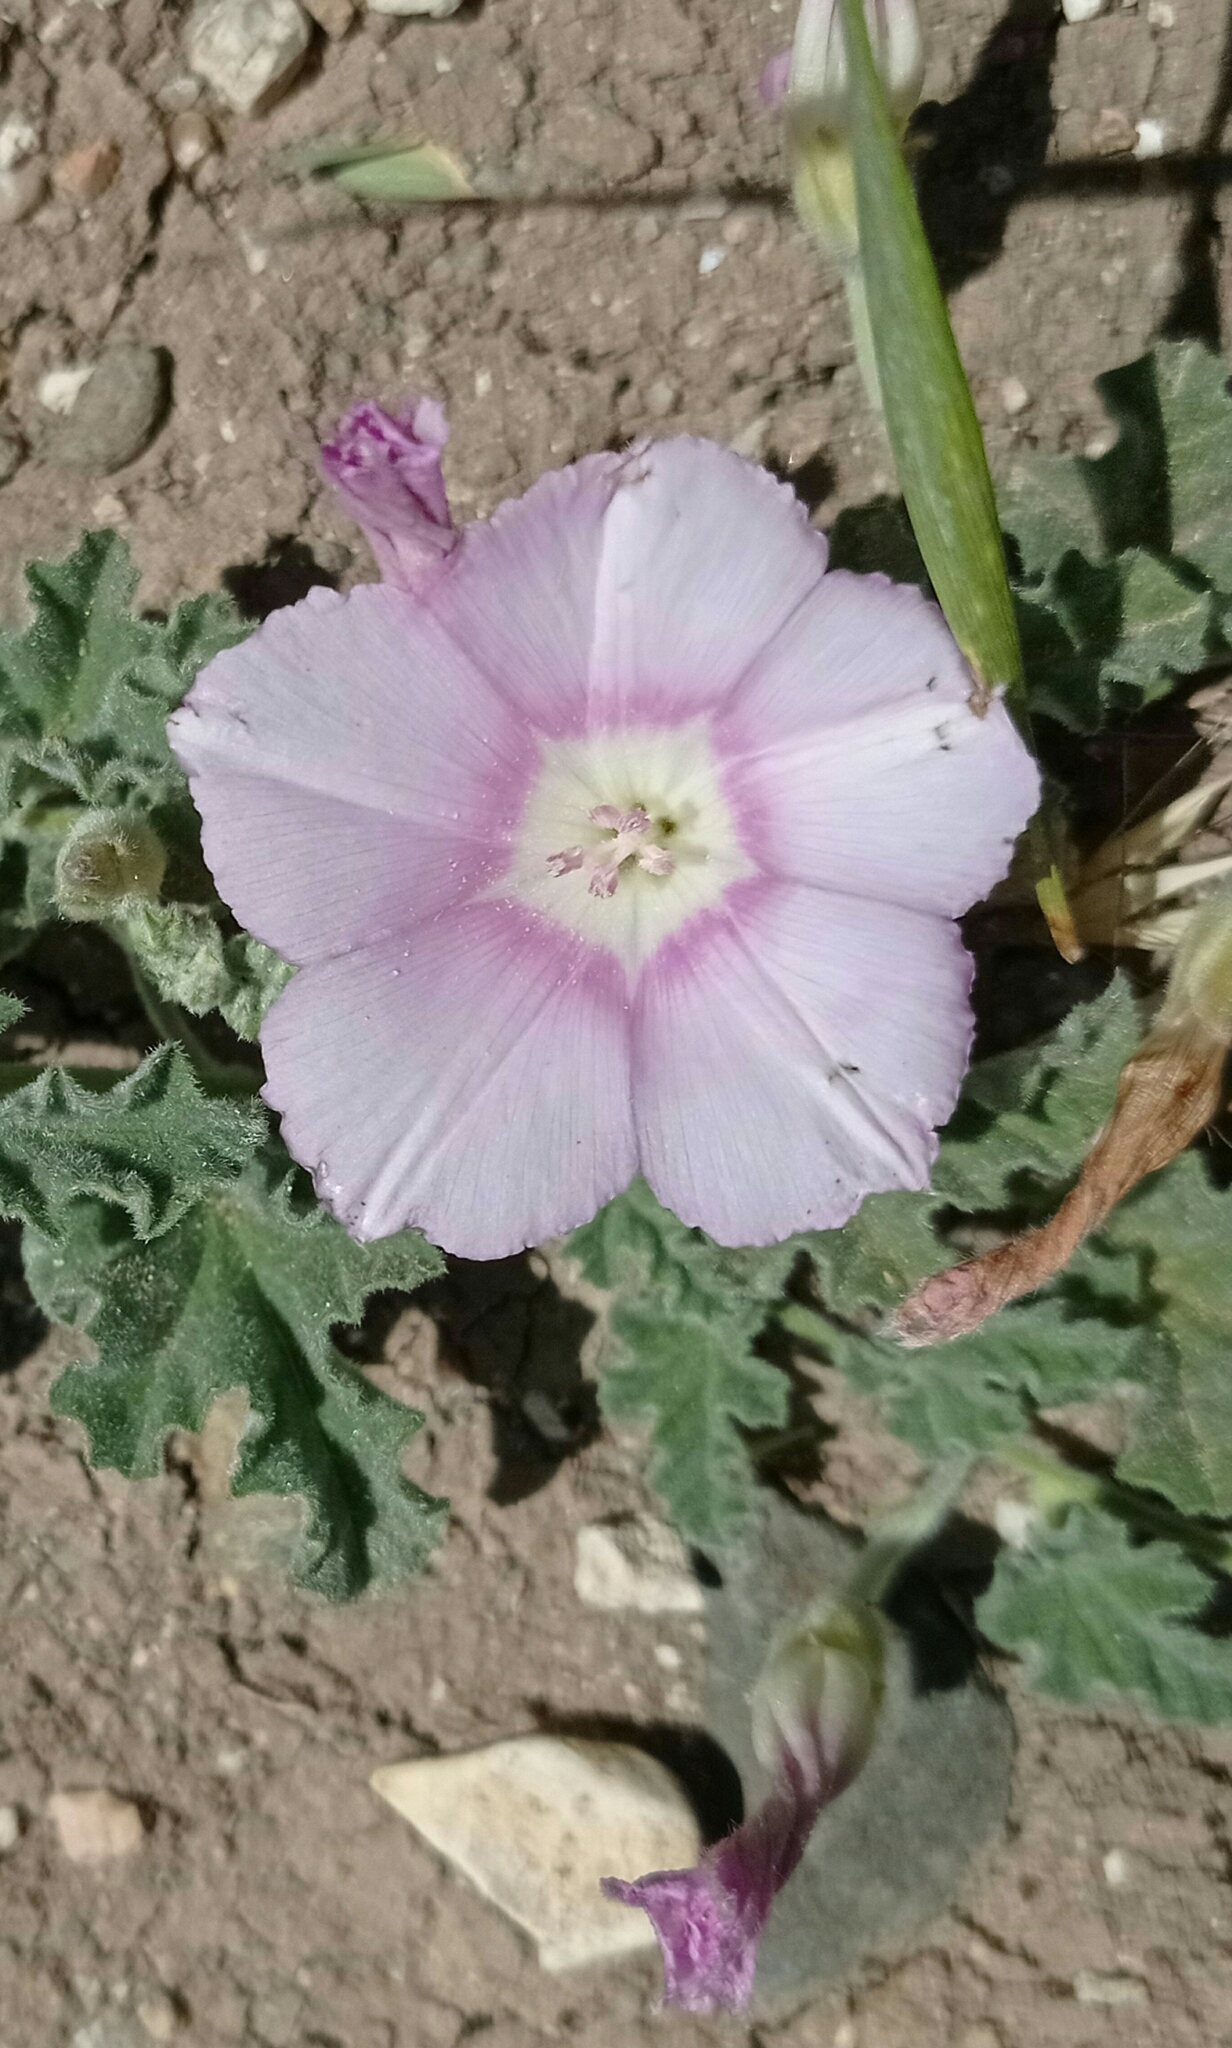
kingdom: Plantae
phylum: Tracheophyta
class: Magnoliopsida
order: Solanales
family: Convolvulaceae
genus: Convolvulus
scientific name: Convolvulus galaticus
